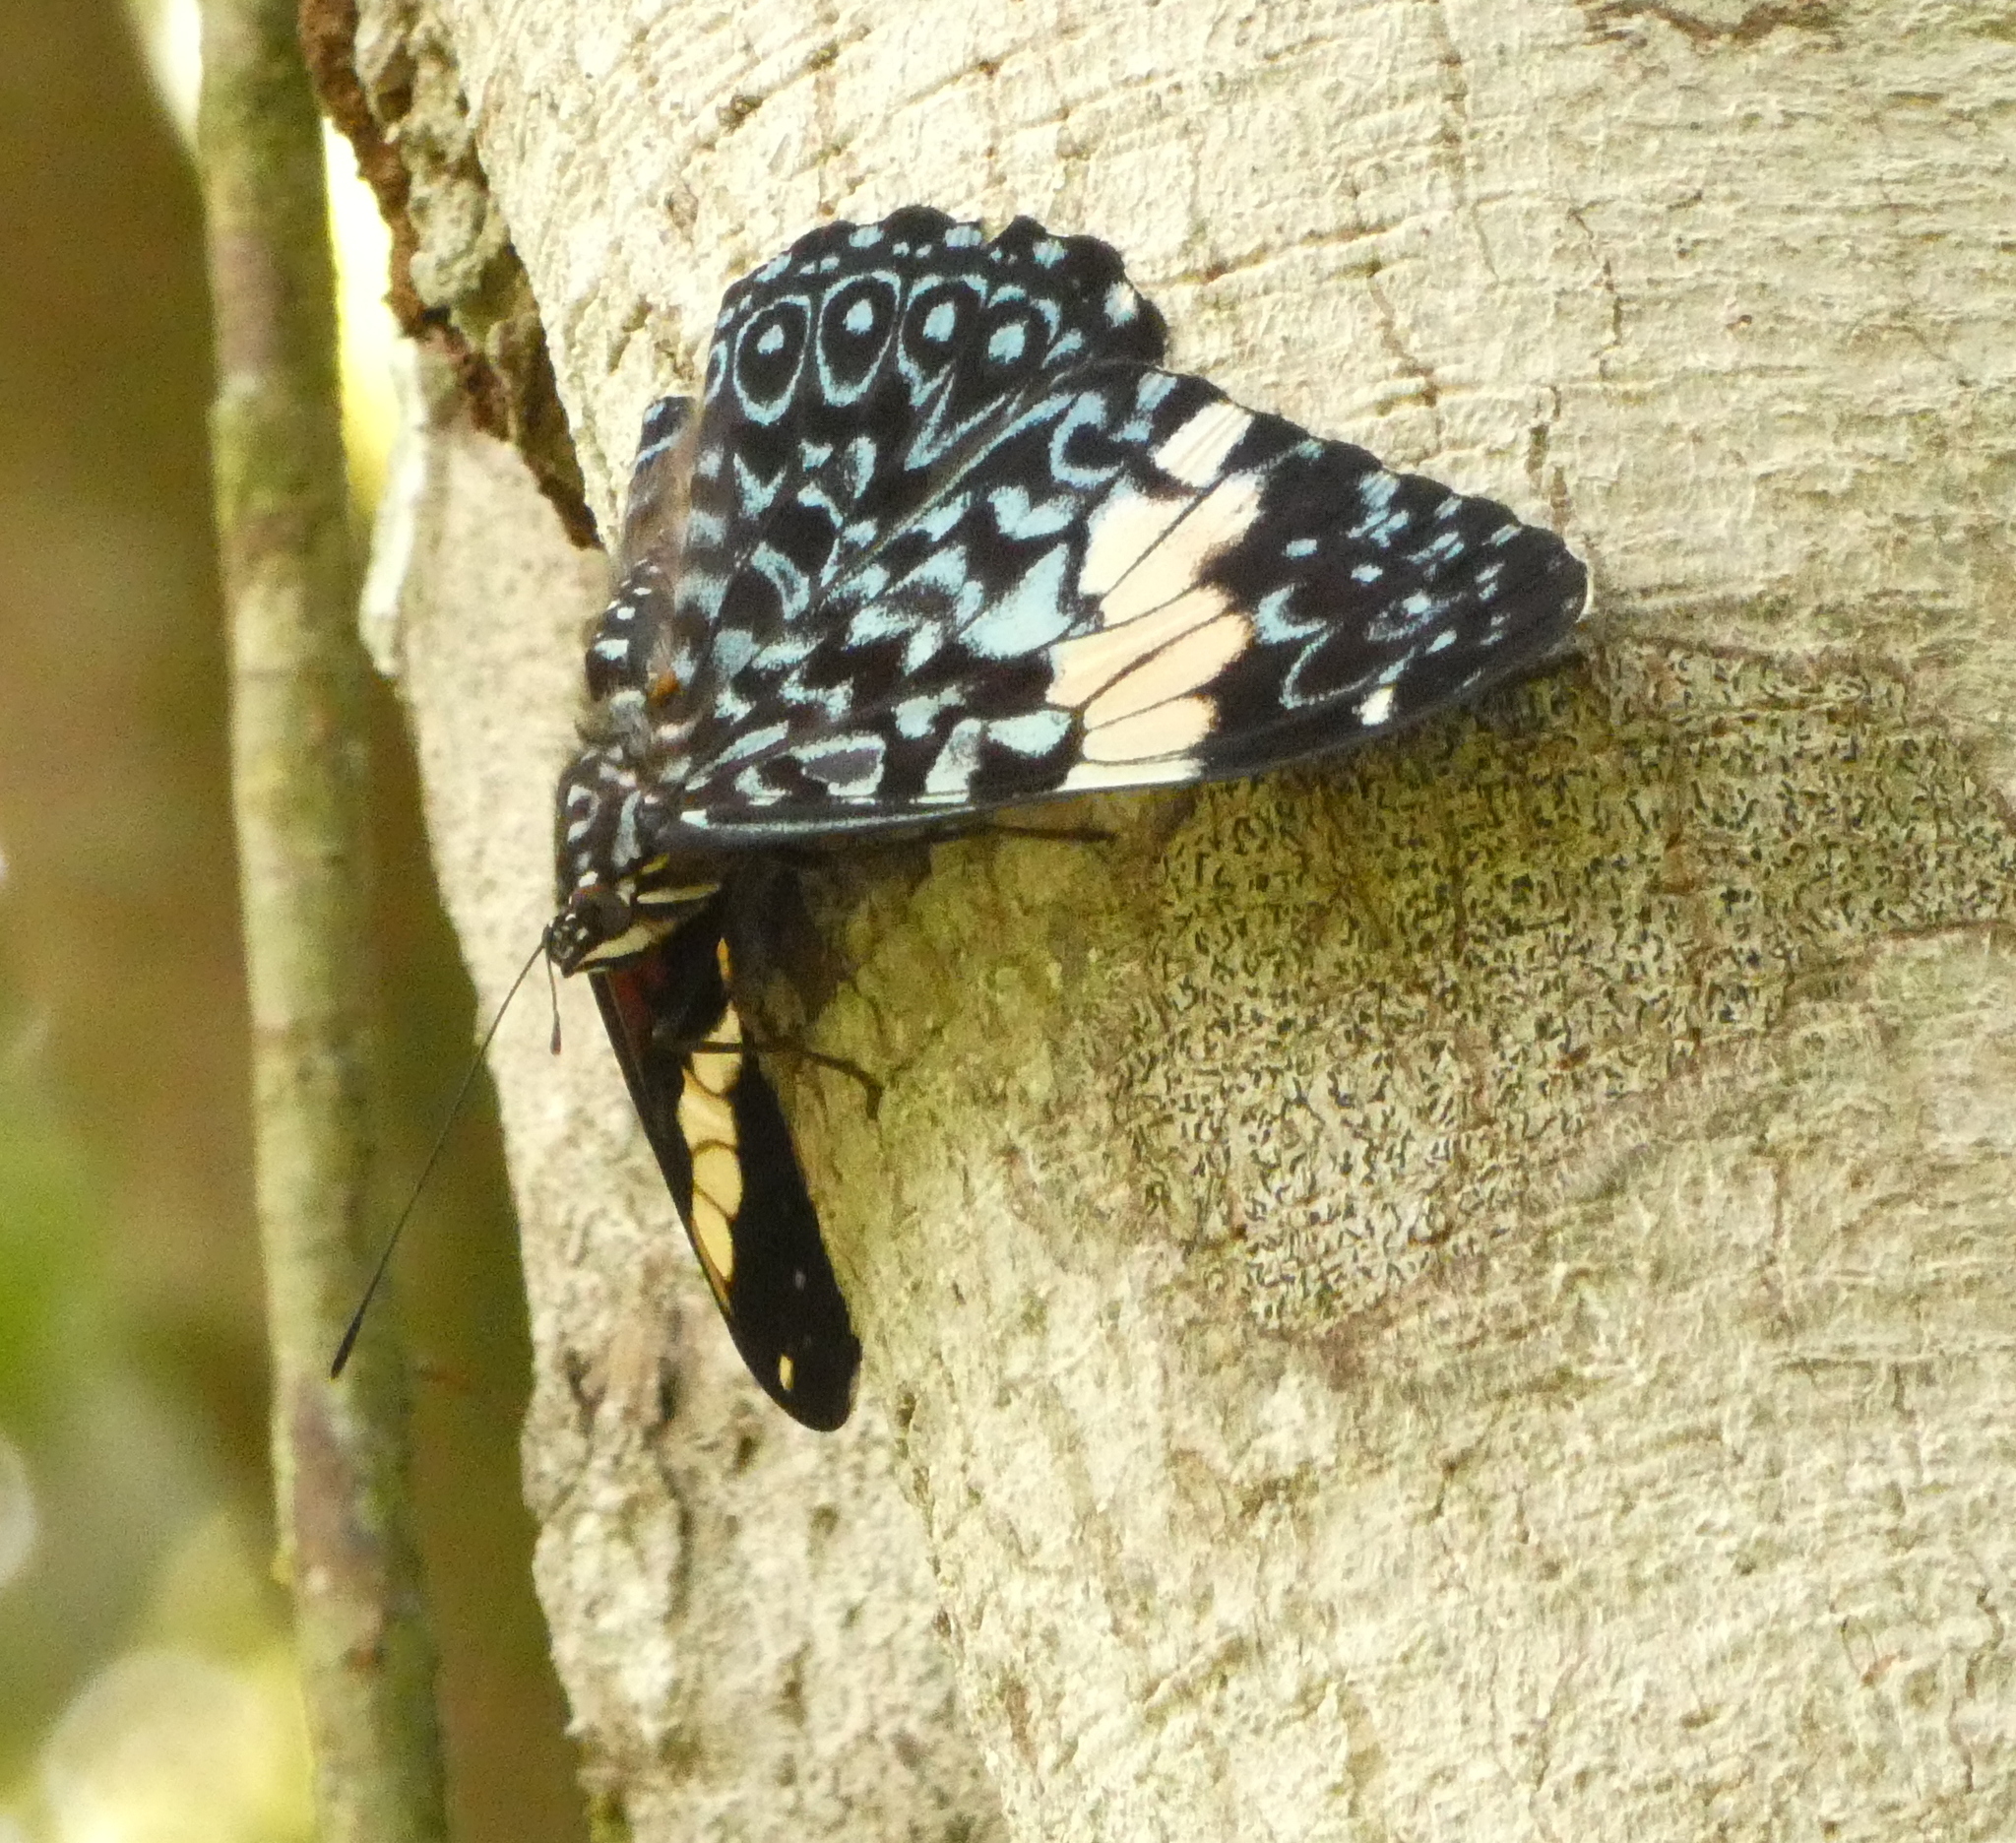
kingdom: Animalia
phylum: Arthropoda
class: Insecta
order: Lepidoptera
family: Nymphalidae
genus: Hamadryas
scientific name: Hamadryas amphinome
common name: Red cracker
